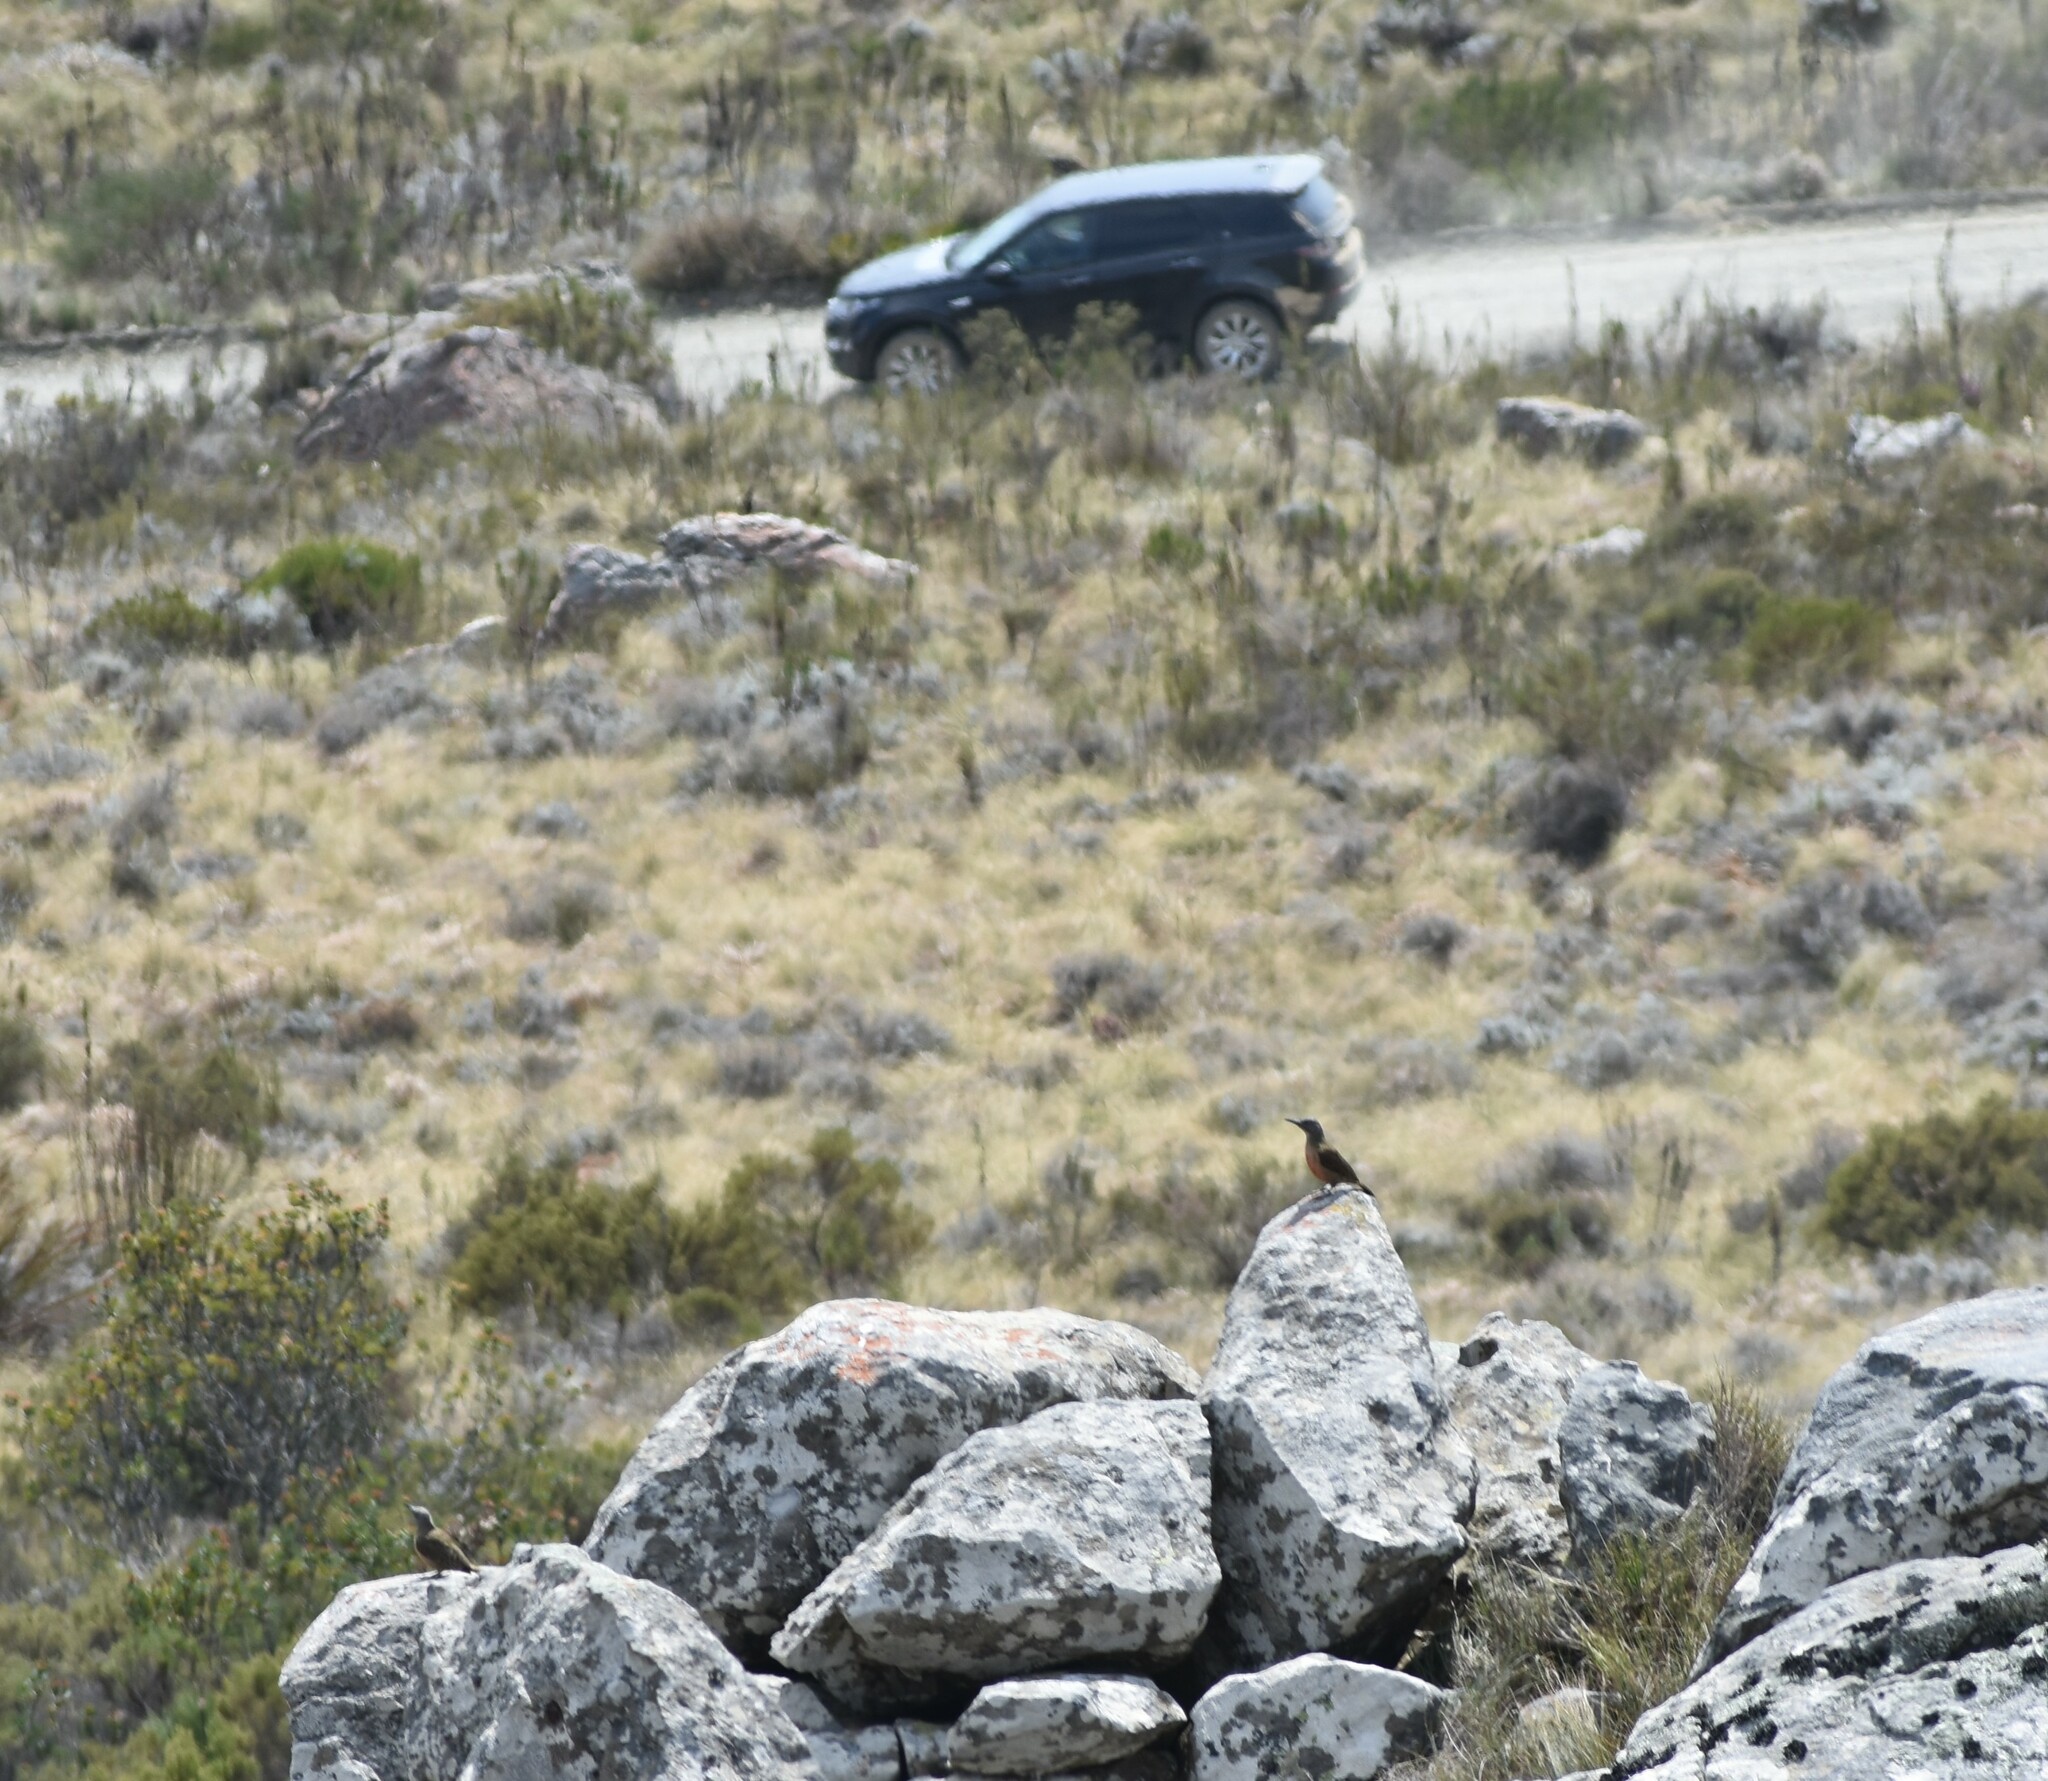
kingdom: Animalia
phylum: Chordata
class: Aves
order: Piciformes
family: Picidae
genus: Geocolaptes
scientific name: Geocolaptes olivaceus
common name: Ground woodpecker
